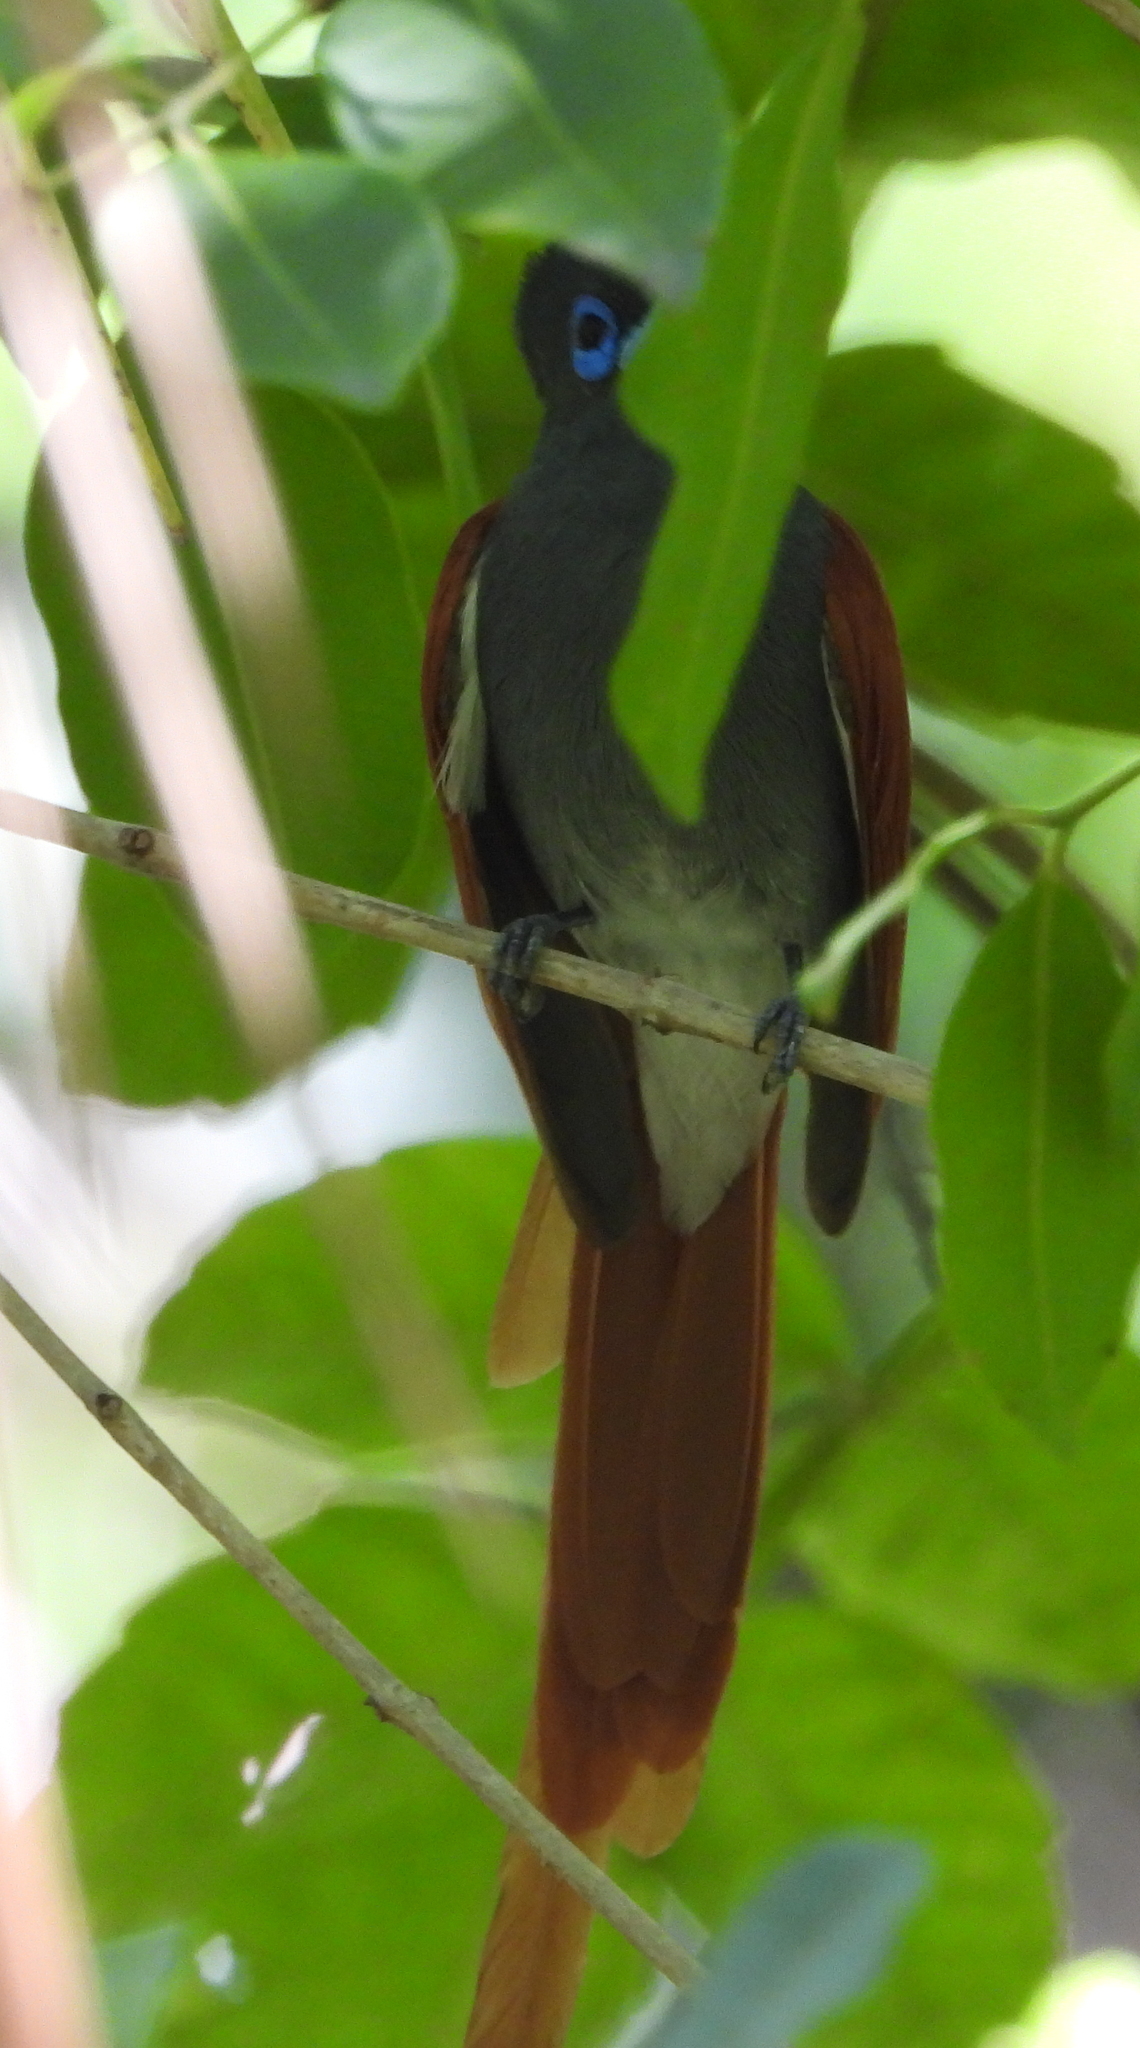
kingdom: Animalia
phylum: Chordata
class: Aves
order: Passeriformes
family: Monarchidae
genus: Terpsiphone
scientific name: Terpsiphone viridis
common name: African paradise flycatcher
